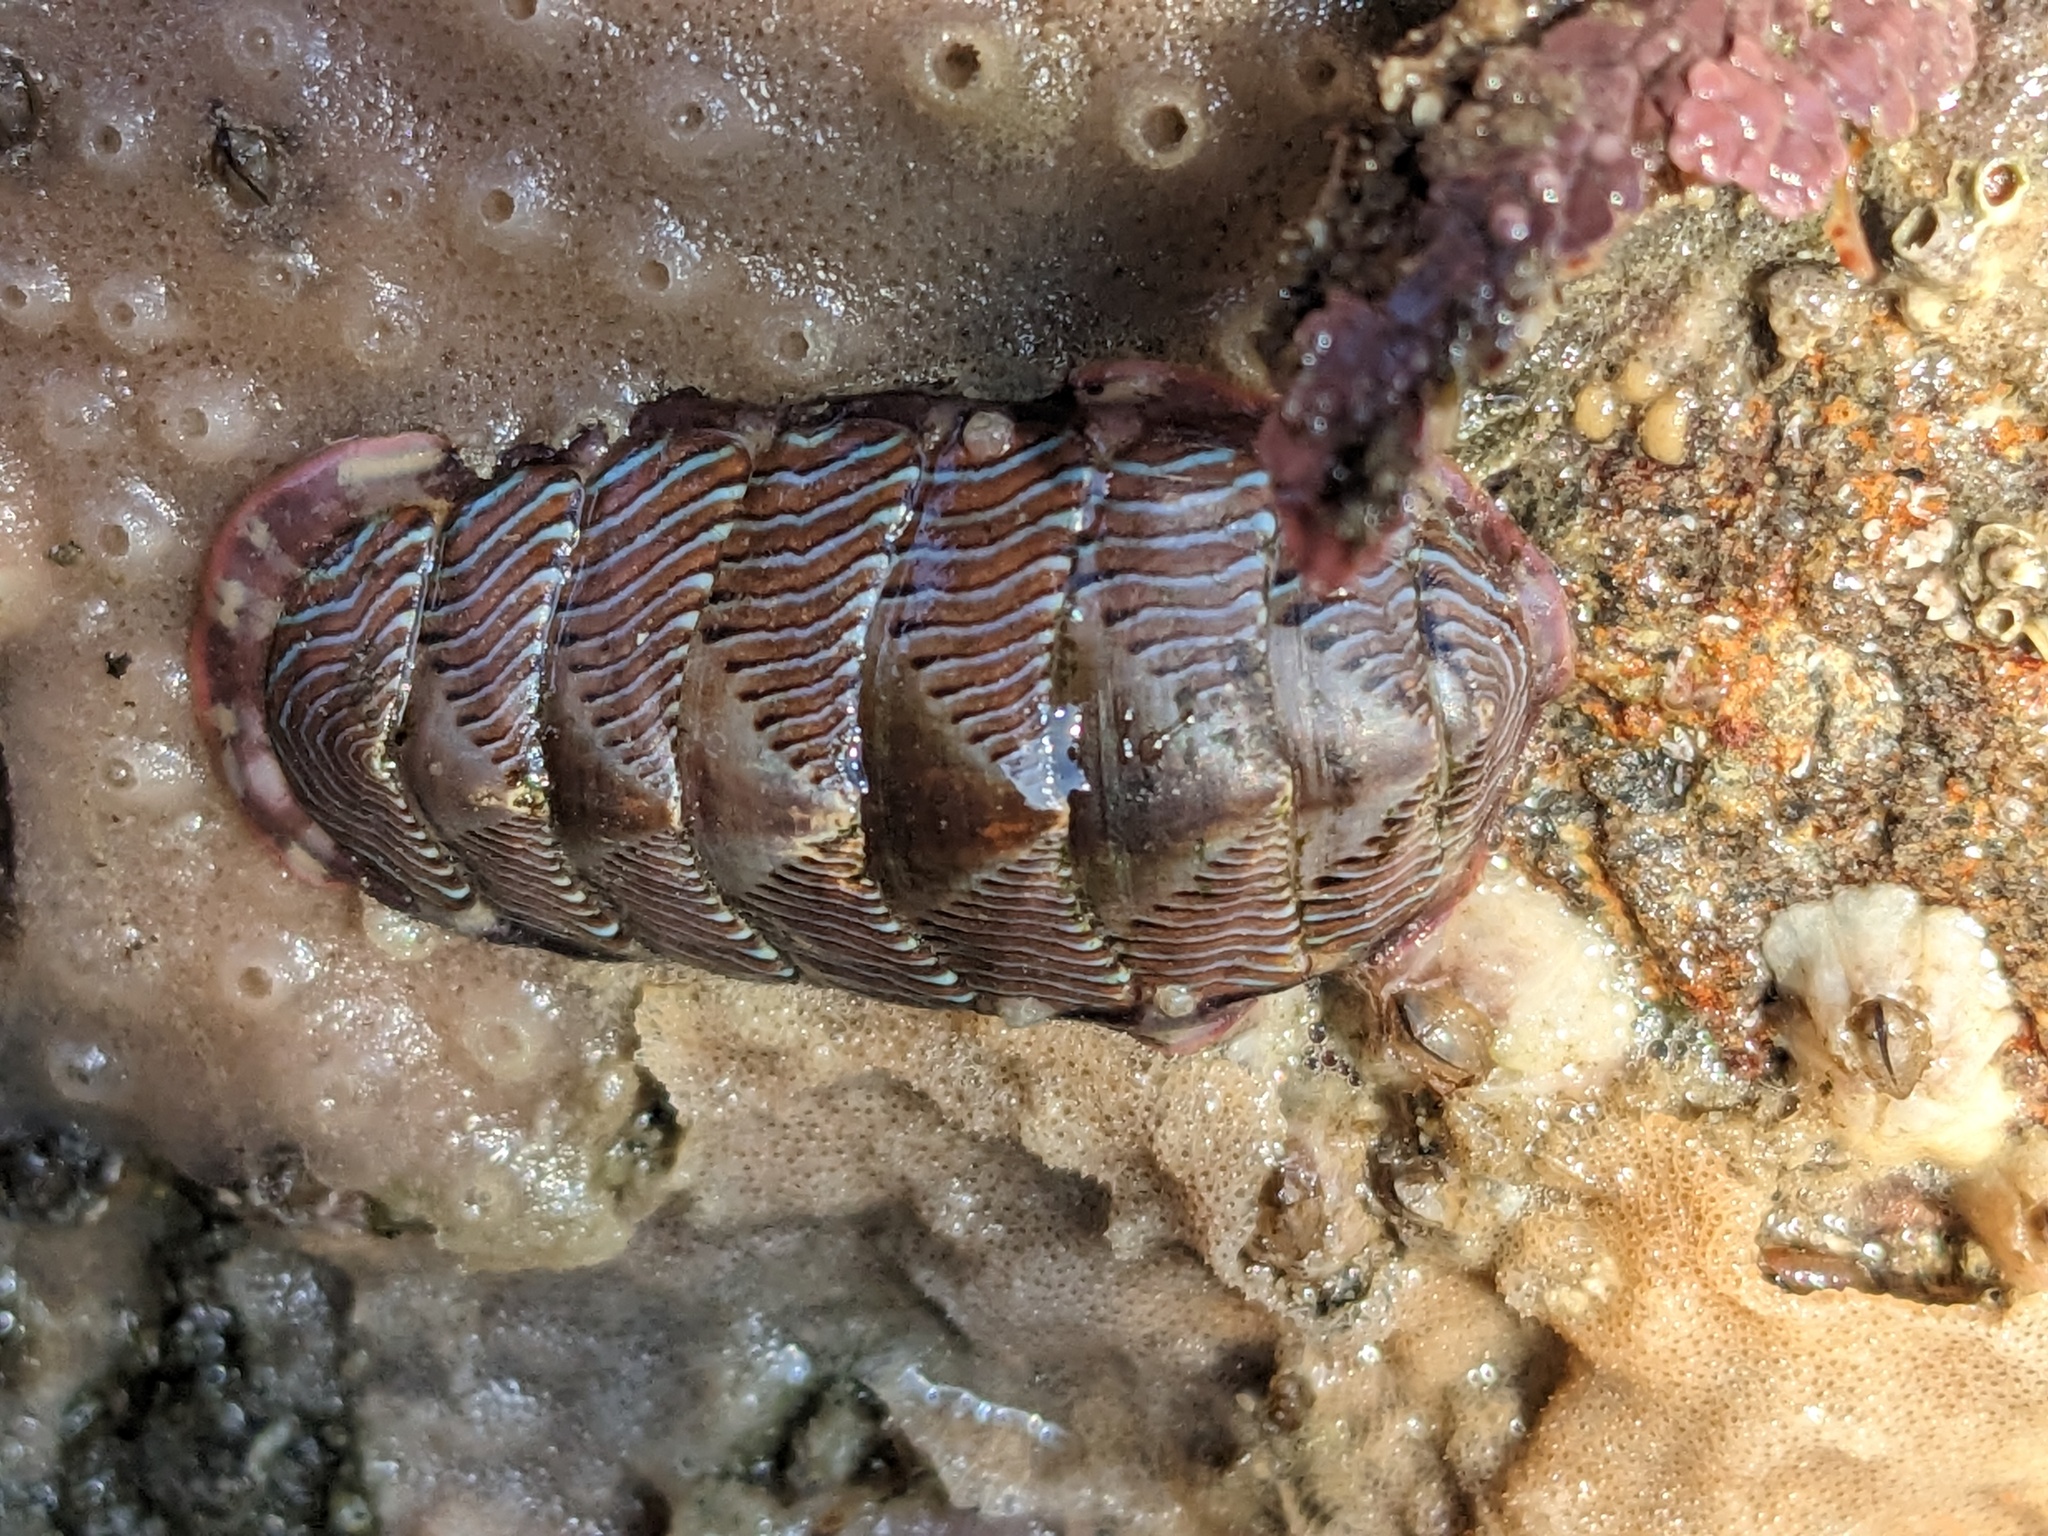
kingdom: Animalia
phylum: Mollusca
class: Polyplacophora
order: Chitonida
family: Tonicellidae
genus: Tonicella
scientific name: Tonicella lineata
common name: Lined chiton
